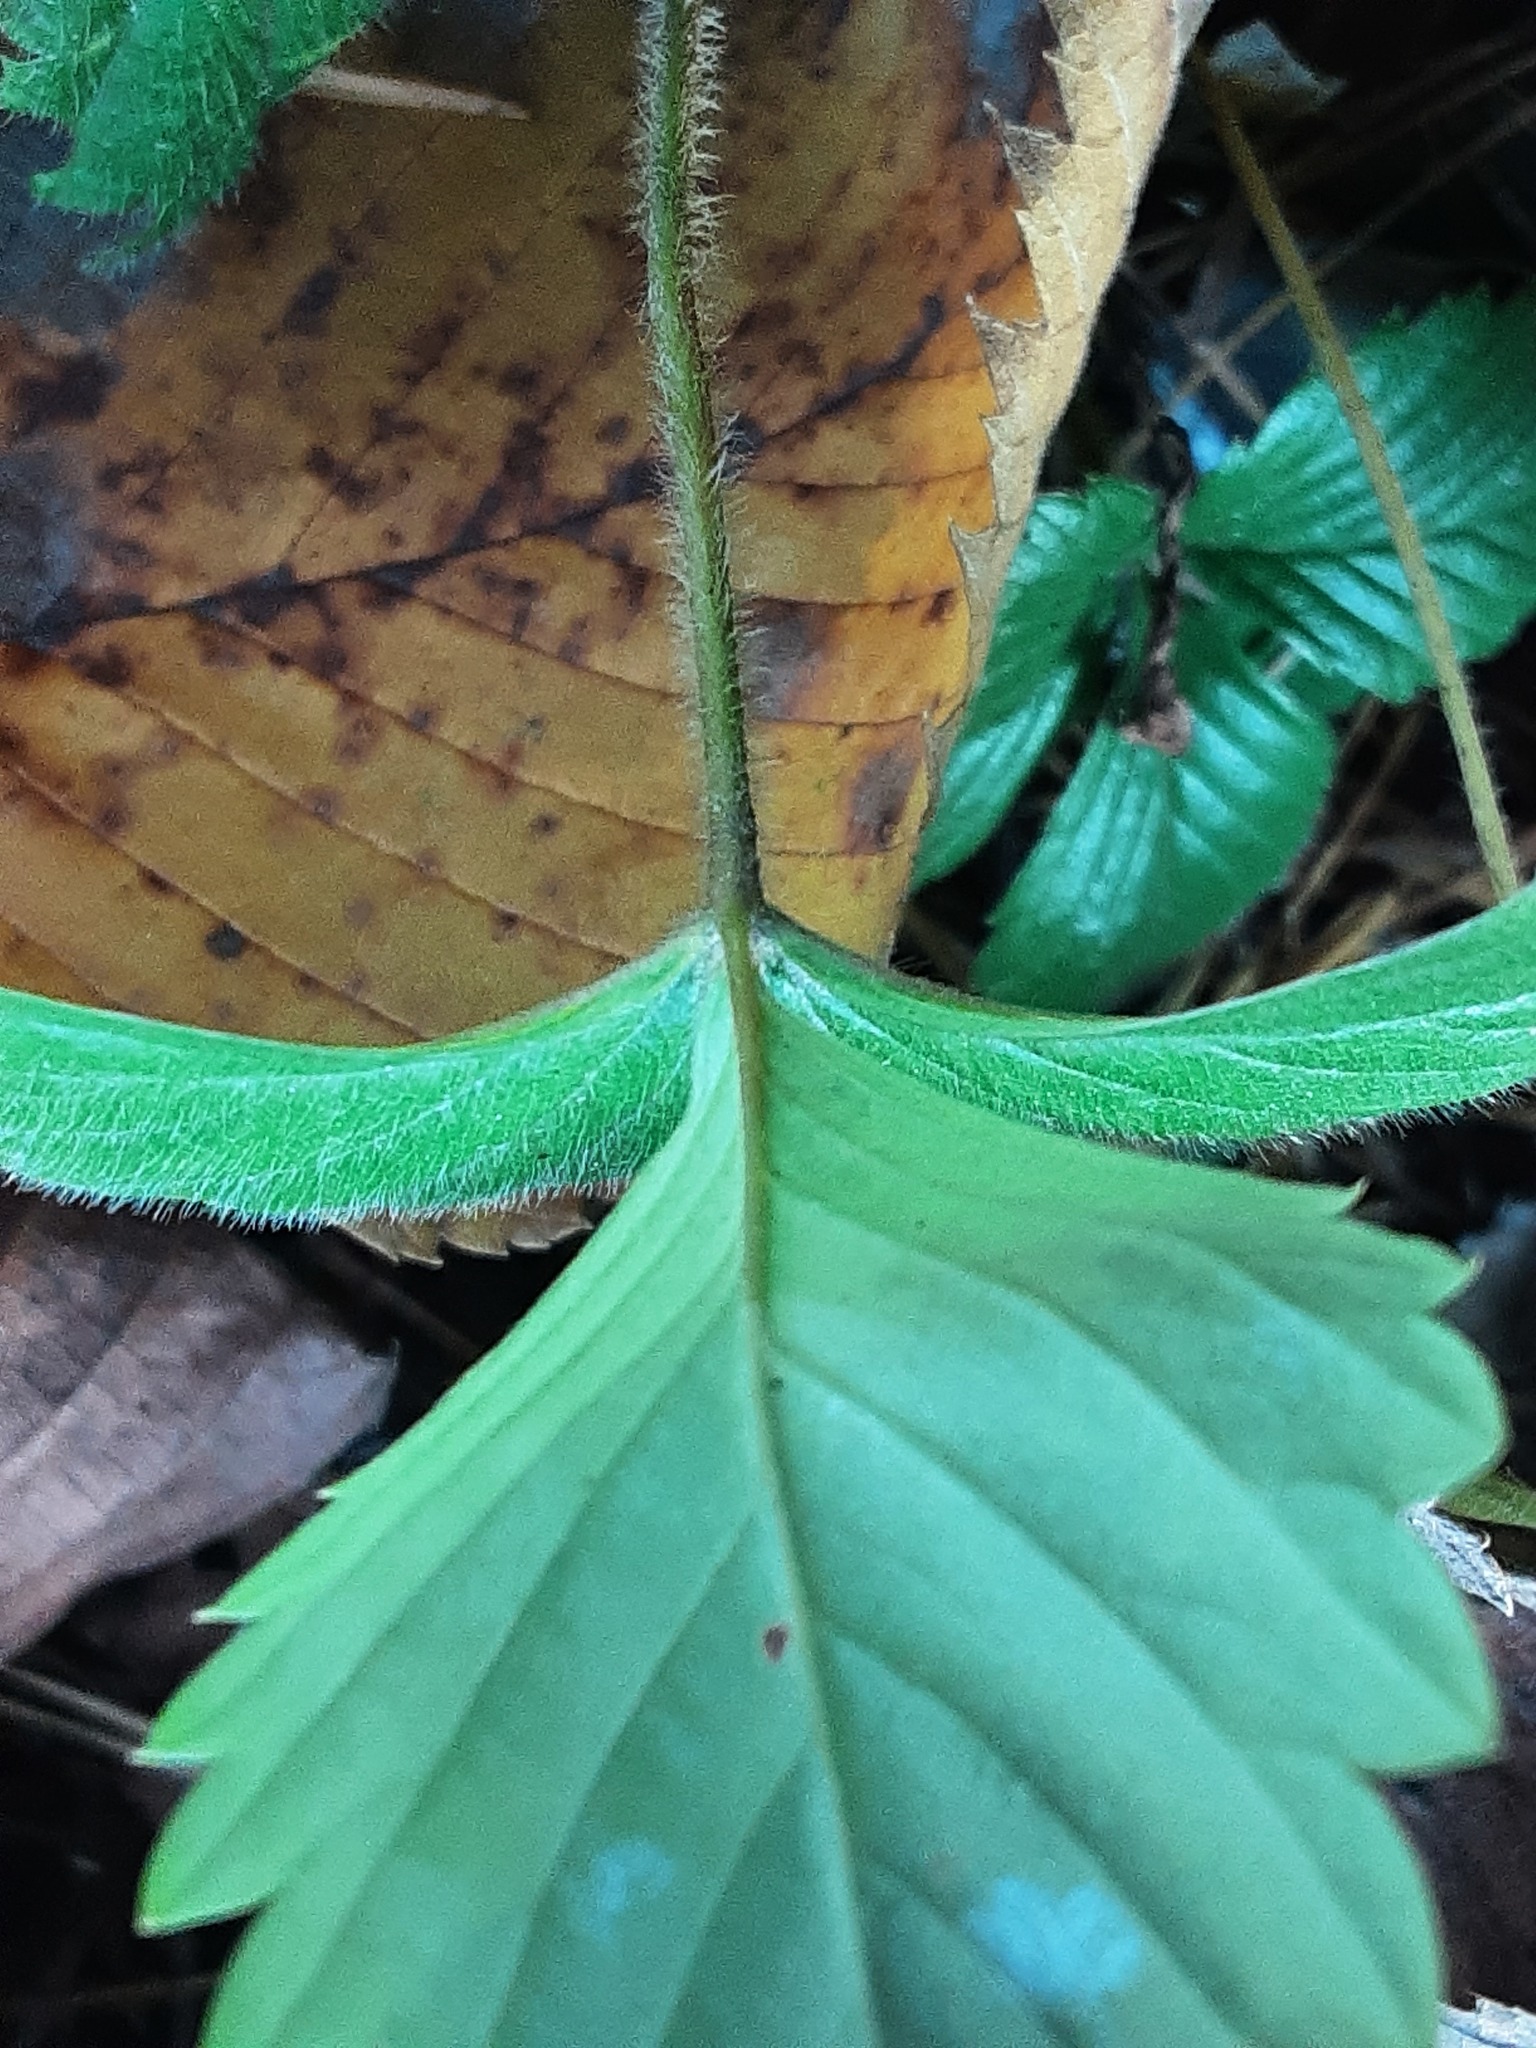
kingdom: Plantae
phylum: Tracheophyta
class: Magnoliopsida
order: Rosales
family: Rosaceae
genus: Fragaria
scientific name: Fragaria vesca
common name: Wild strawberry
